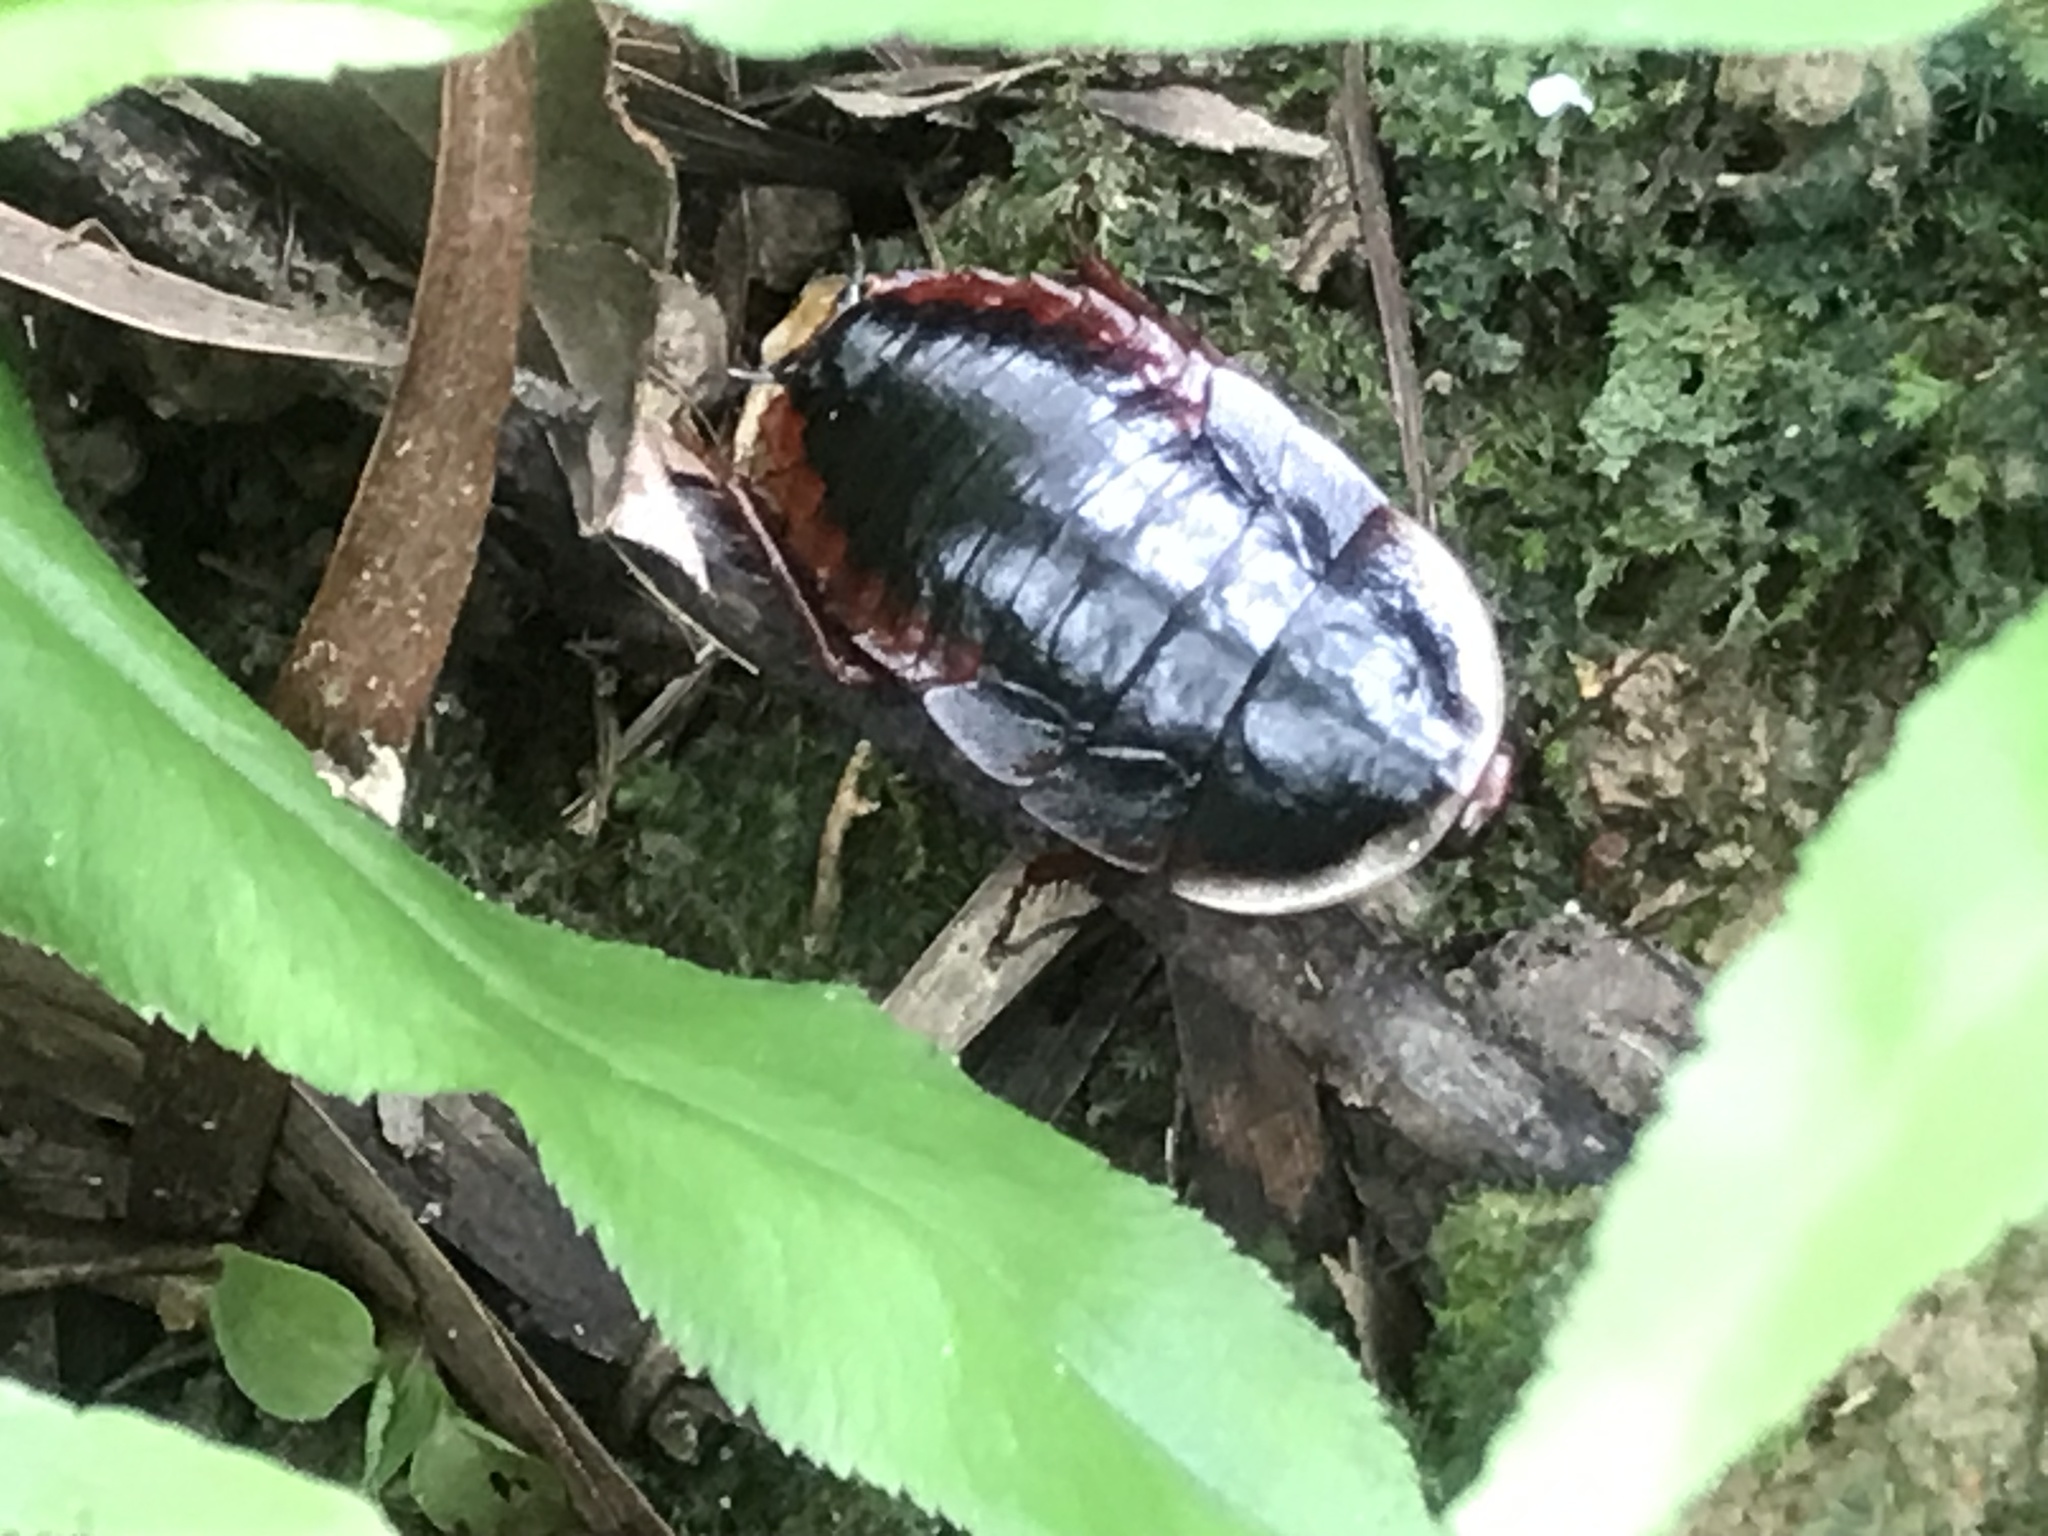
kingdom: Animalia
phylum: Arthropoda
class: Insecta
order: Blattodea
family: Blaberidae
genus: Opisthoplatia
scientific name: Opisthoplatia orientalis
